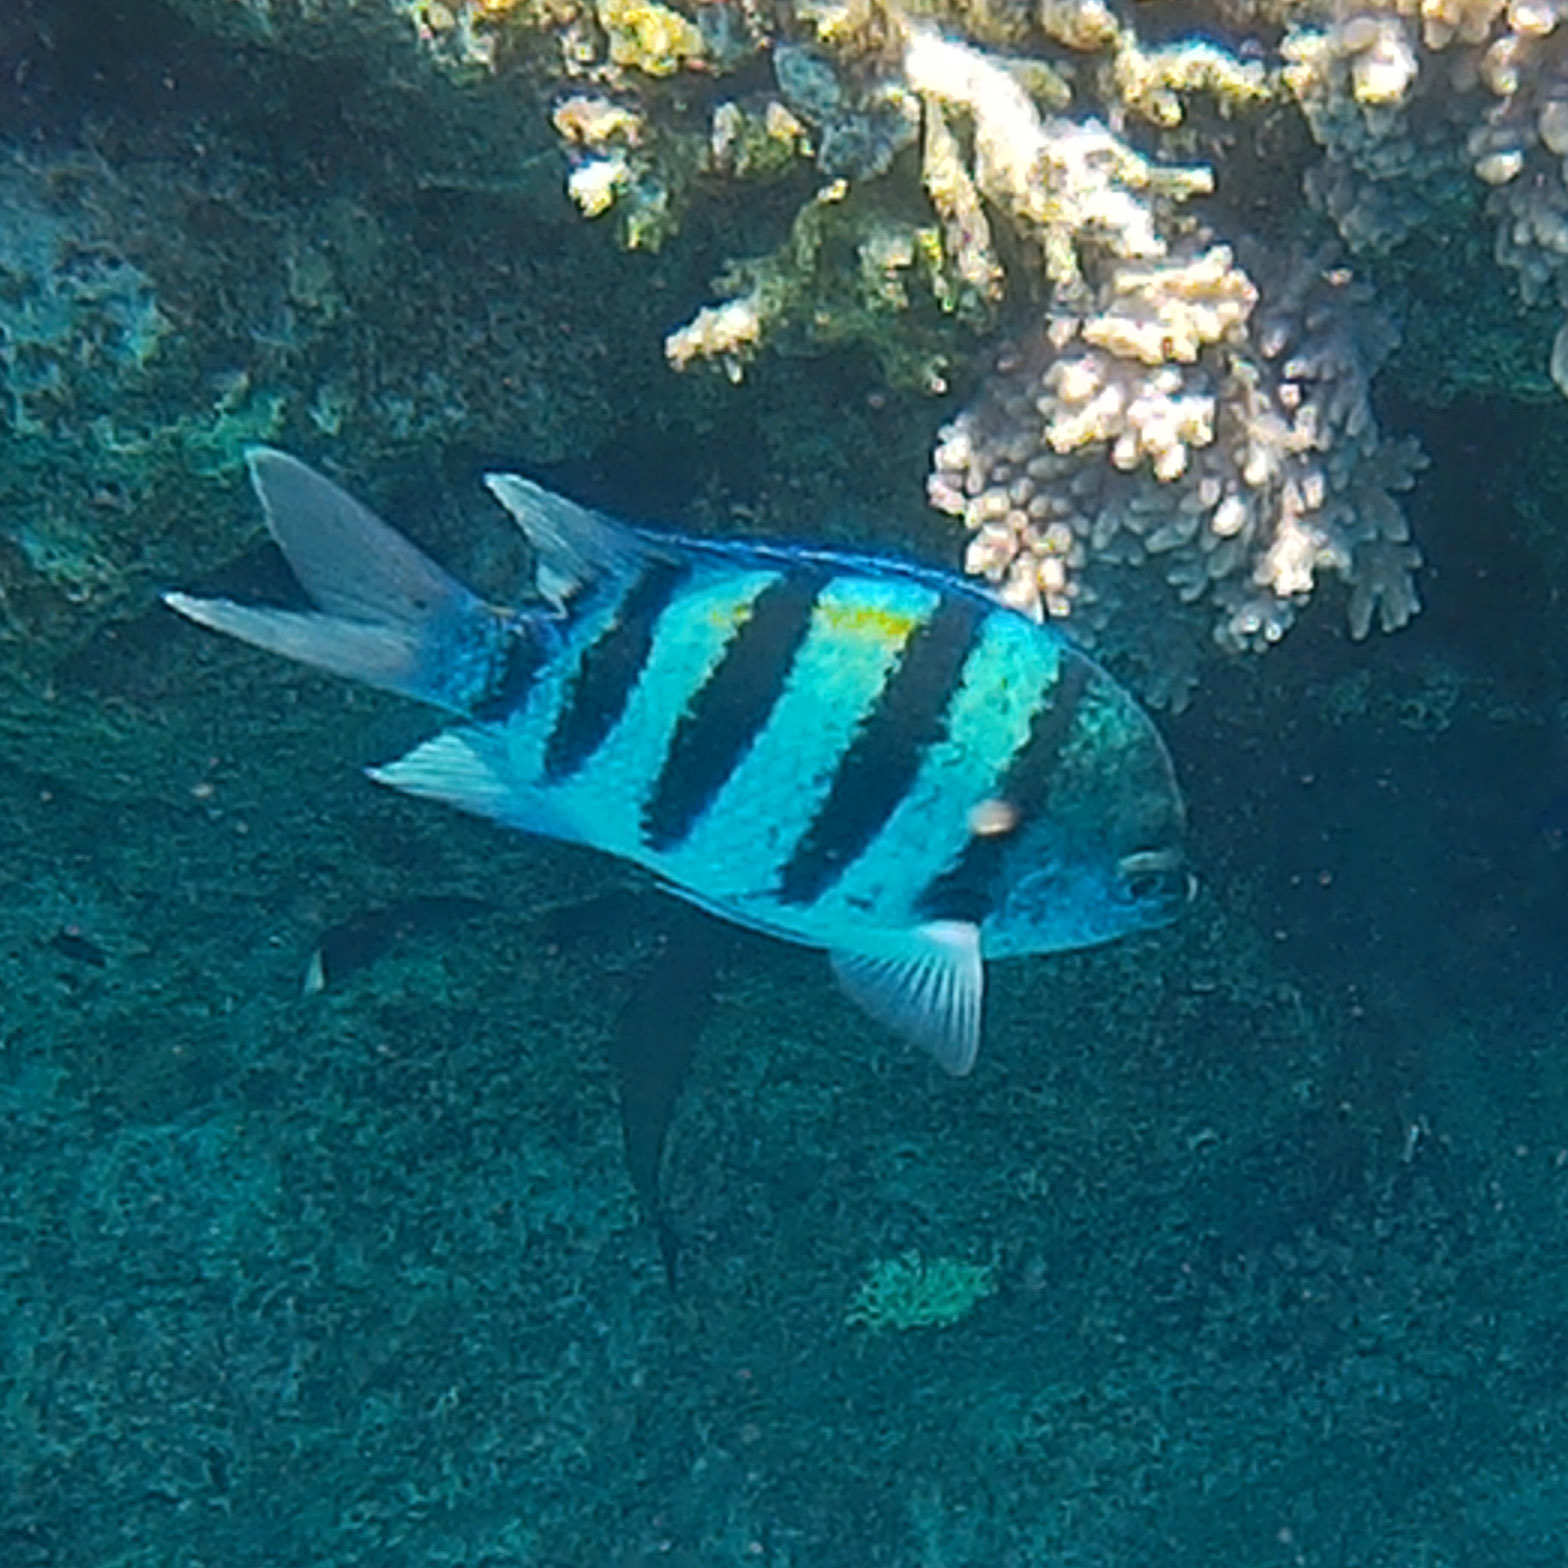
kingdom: Animalia
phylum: Chordata
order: Perciformes
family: Pomacentridae
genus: Abudefduf
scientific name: Abudefduf vaigiensis
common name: Indo-pacific sergeant
